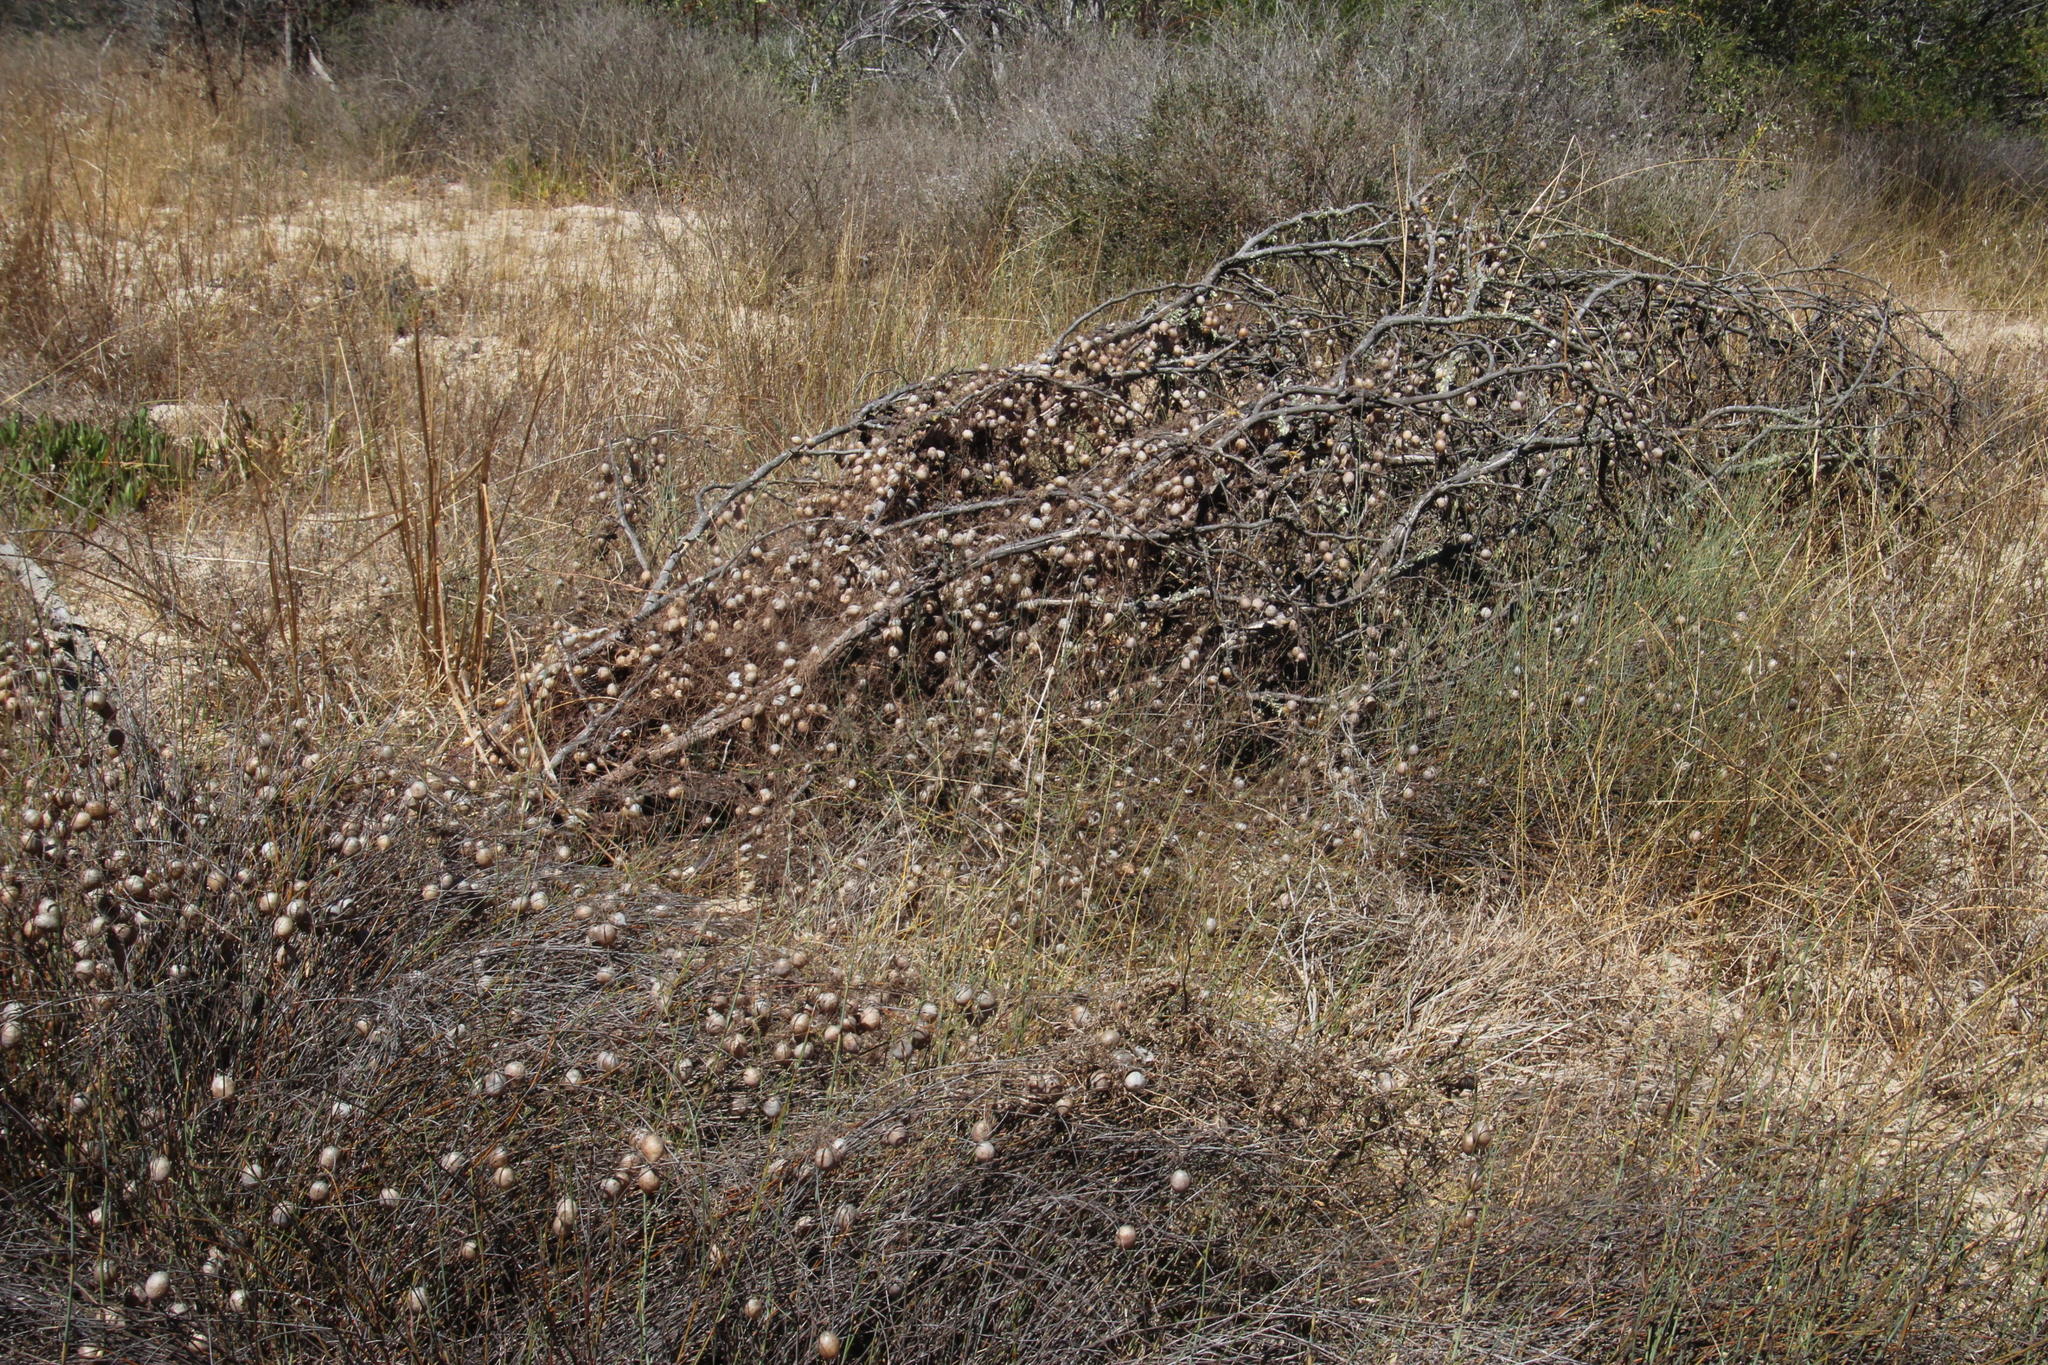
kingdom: Plantae
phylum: Tracheophyta
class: Magnoliopsida
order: Ranunculales
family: Papaveraceae
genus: Cysticapnos
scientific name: Cysticapnos vesicaria
